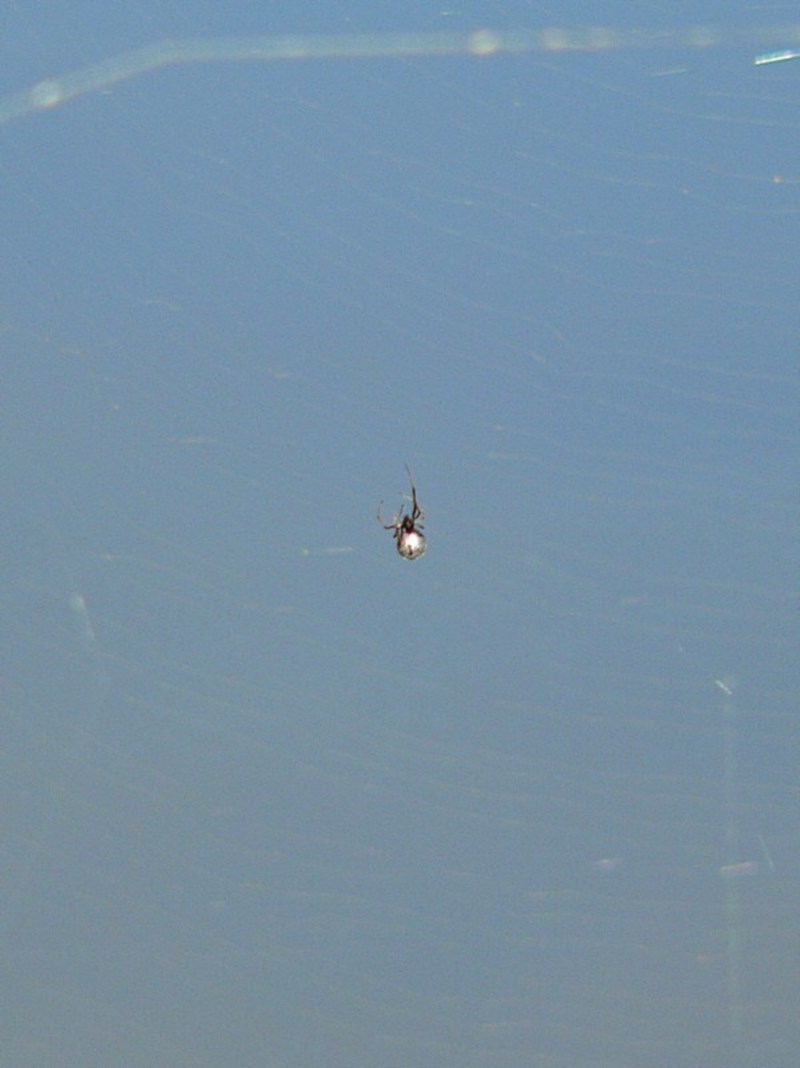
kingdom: Animalia
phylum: Arthropoda
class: Arachnida
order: Araneae
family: Theridiidae
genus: Argyrodes
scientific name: Argyrodes antipodianus
